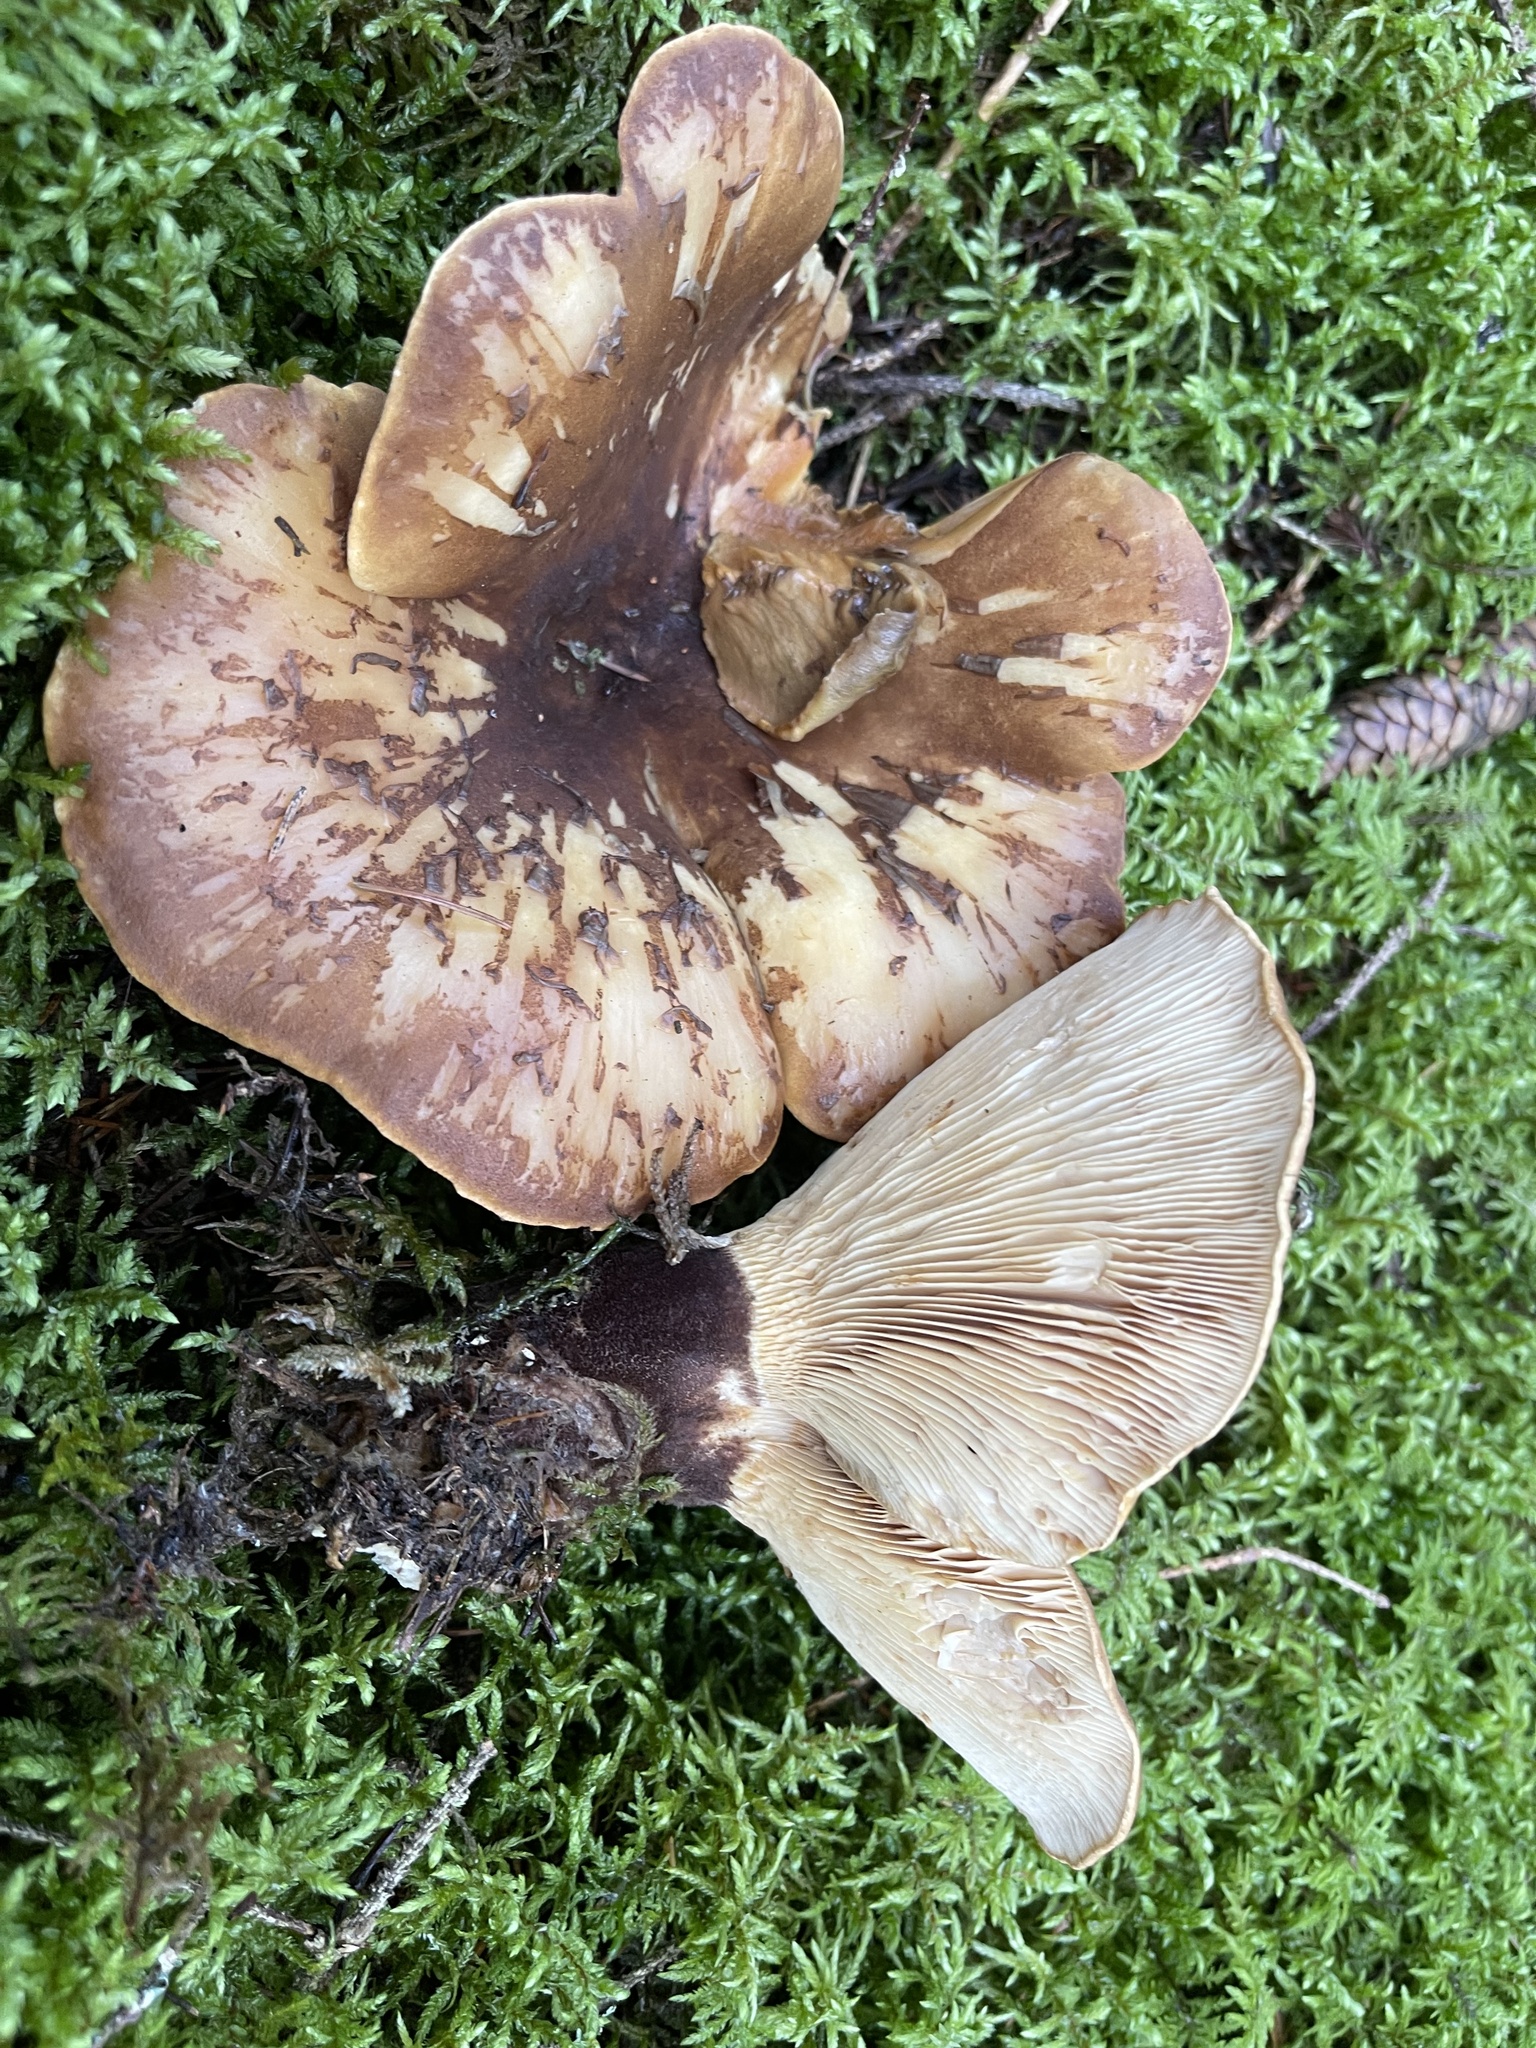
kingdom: Fungi
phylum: Basidiomycota
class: Agaricomycetes
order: Boletales
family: Tapinellaceae
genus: Tapinella
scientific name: Tapinella atrotomentosa
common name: Velvet rollrim
